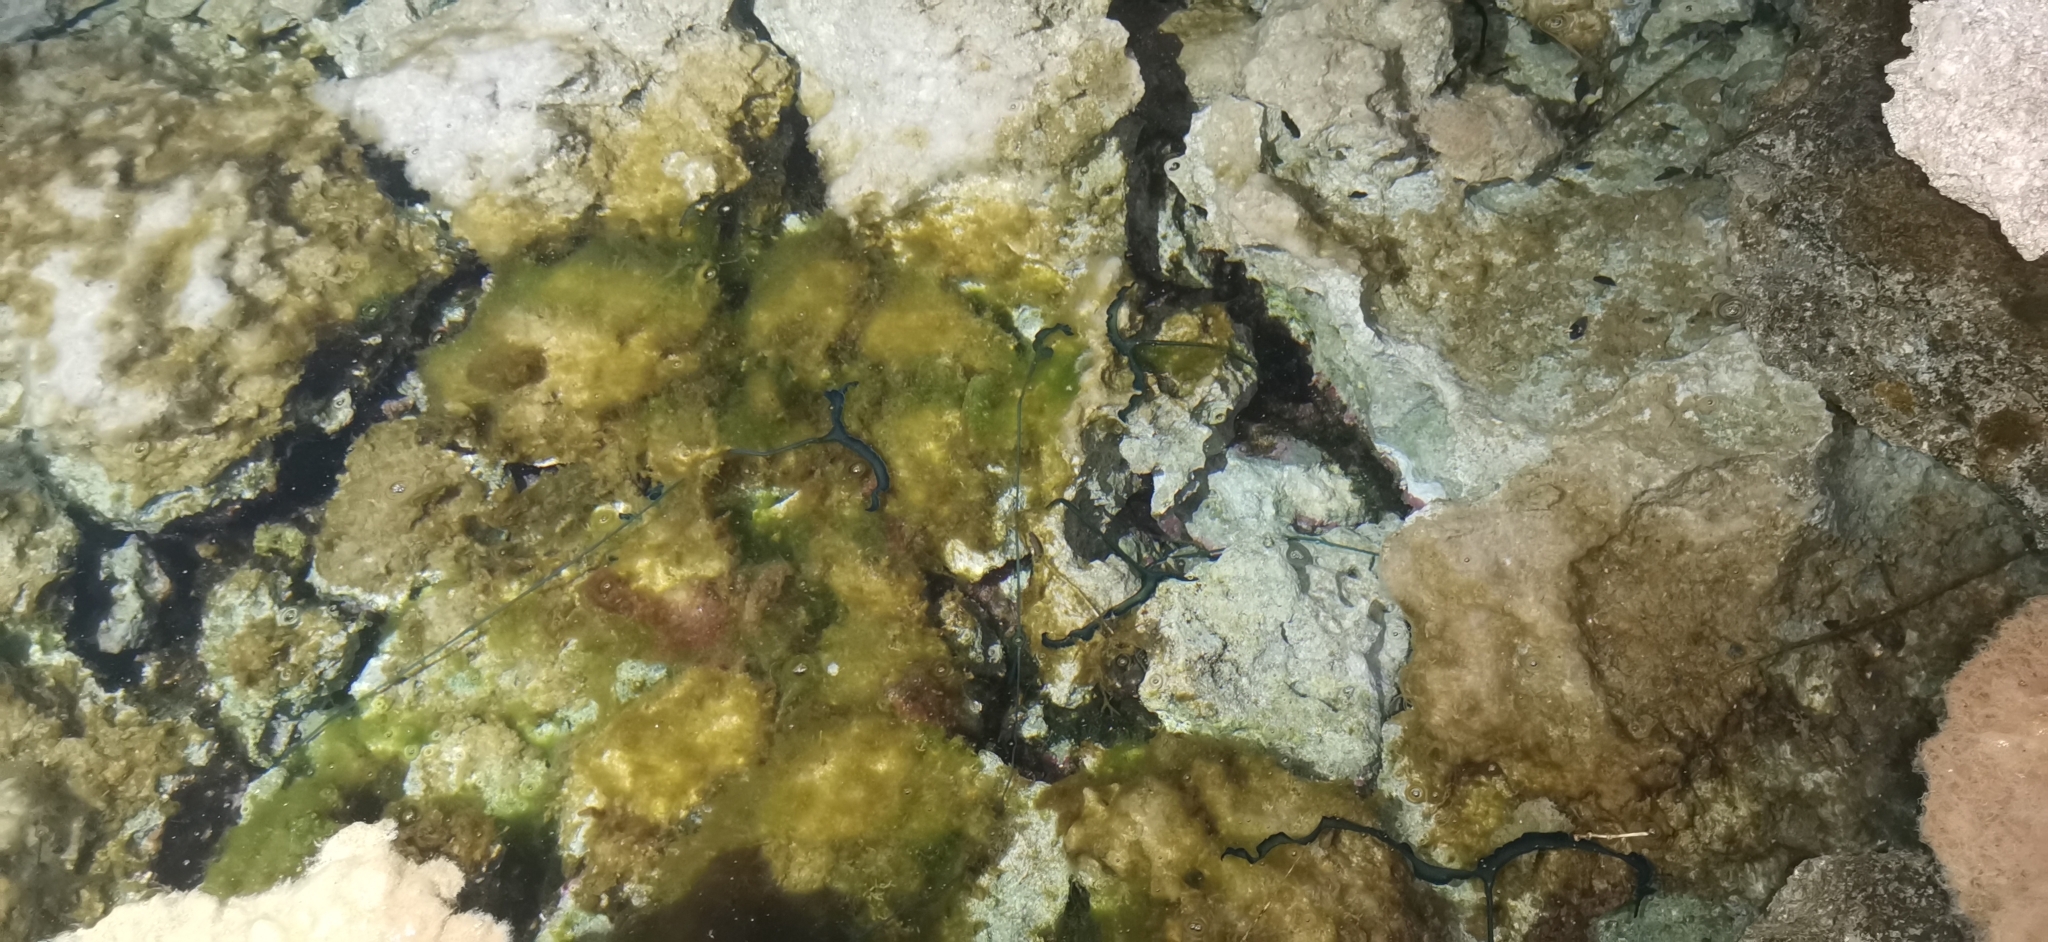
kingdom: Animalia
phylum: Annelida
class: Polychaeta
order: Echiuroidea
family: Bonelliidae
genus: Bonellia
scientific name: Bonellia viridis
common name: Green spoon worm
